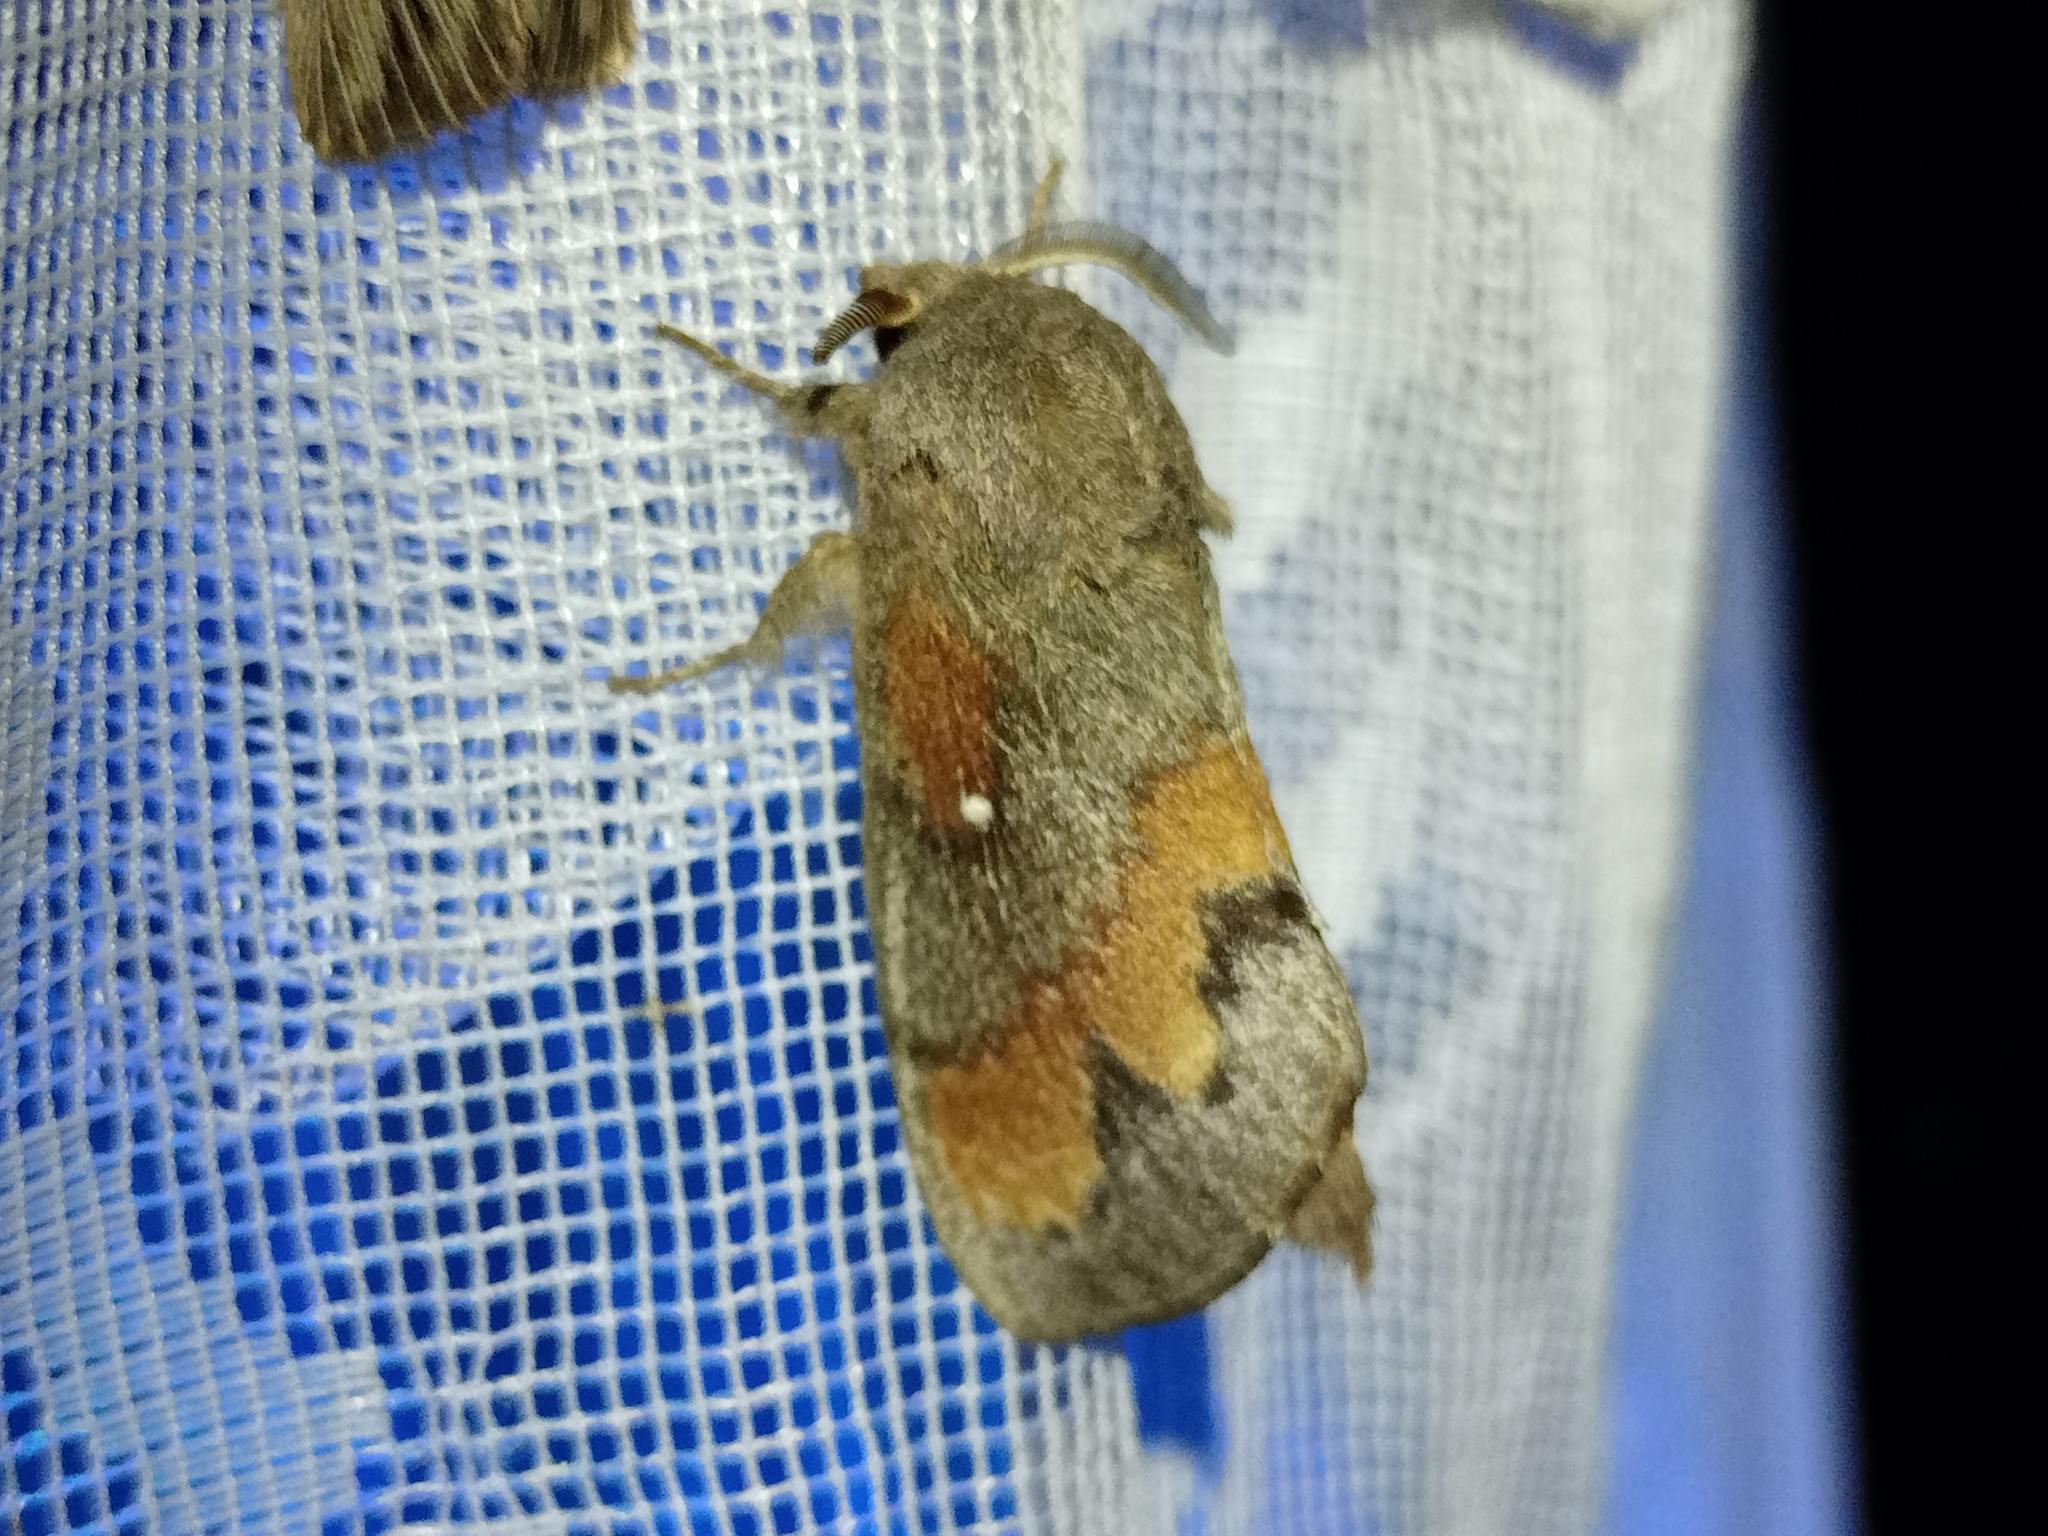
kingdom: Animalia
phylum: Arthropoda
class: Insecta
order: Lepidoptera
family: Lasiocampidae
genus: Dendrolimus
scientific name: Dendrolimus pini
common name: Pine-tree lappet
